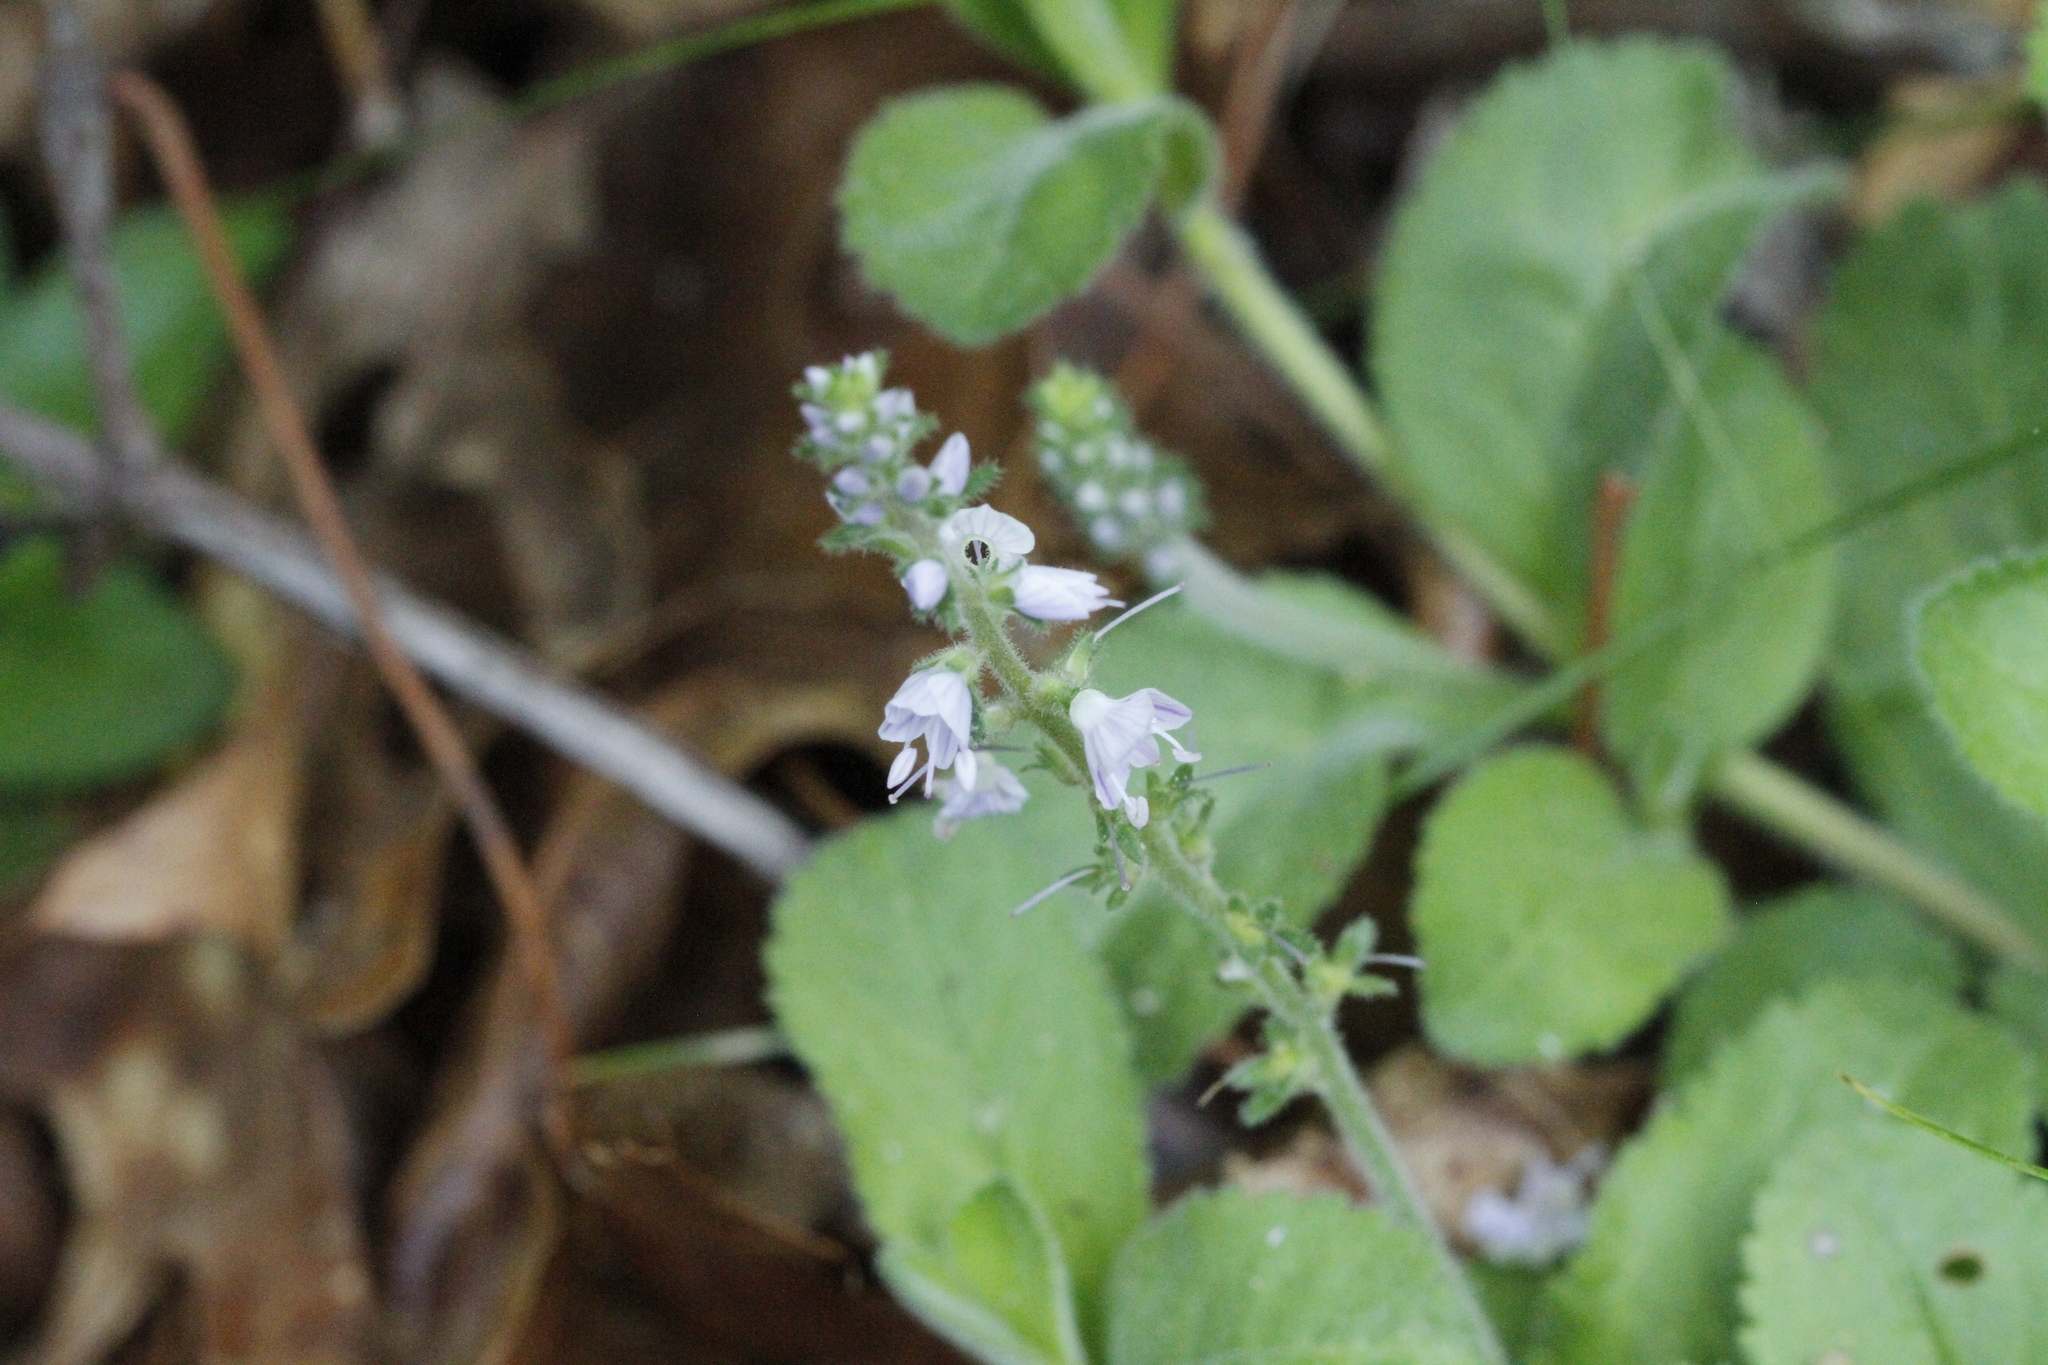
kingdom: Plantae
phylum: Tracheophyta
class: Magnoliopsida
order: Lamiales
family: Plantaginaceae
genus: Veronica
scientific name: Veronica officinalis
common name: Common speedwell
